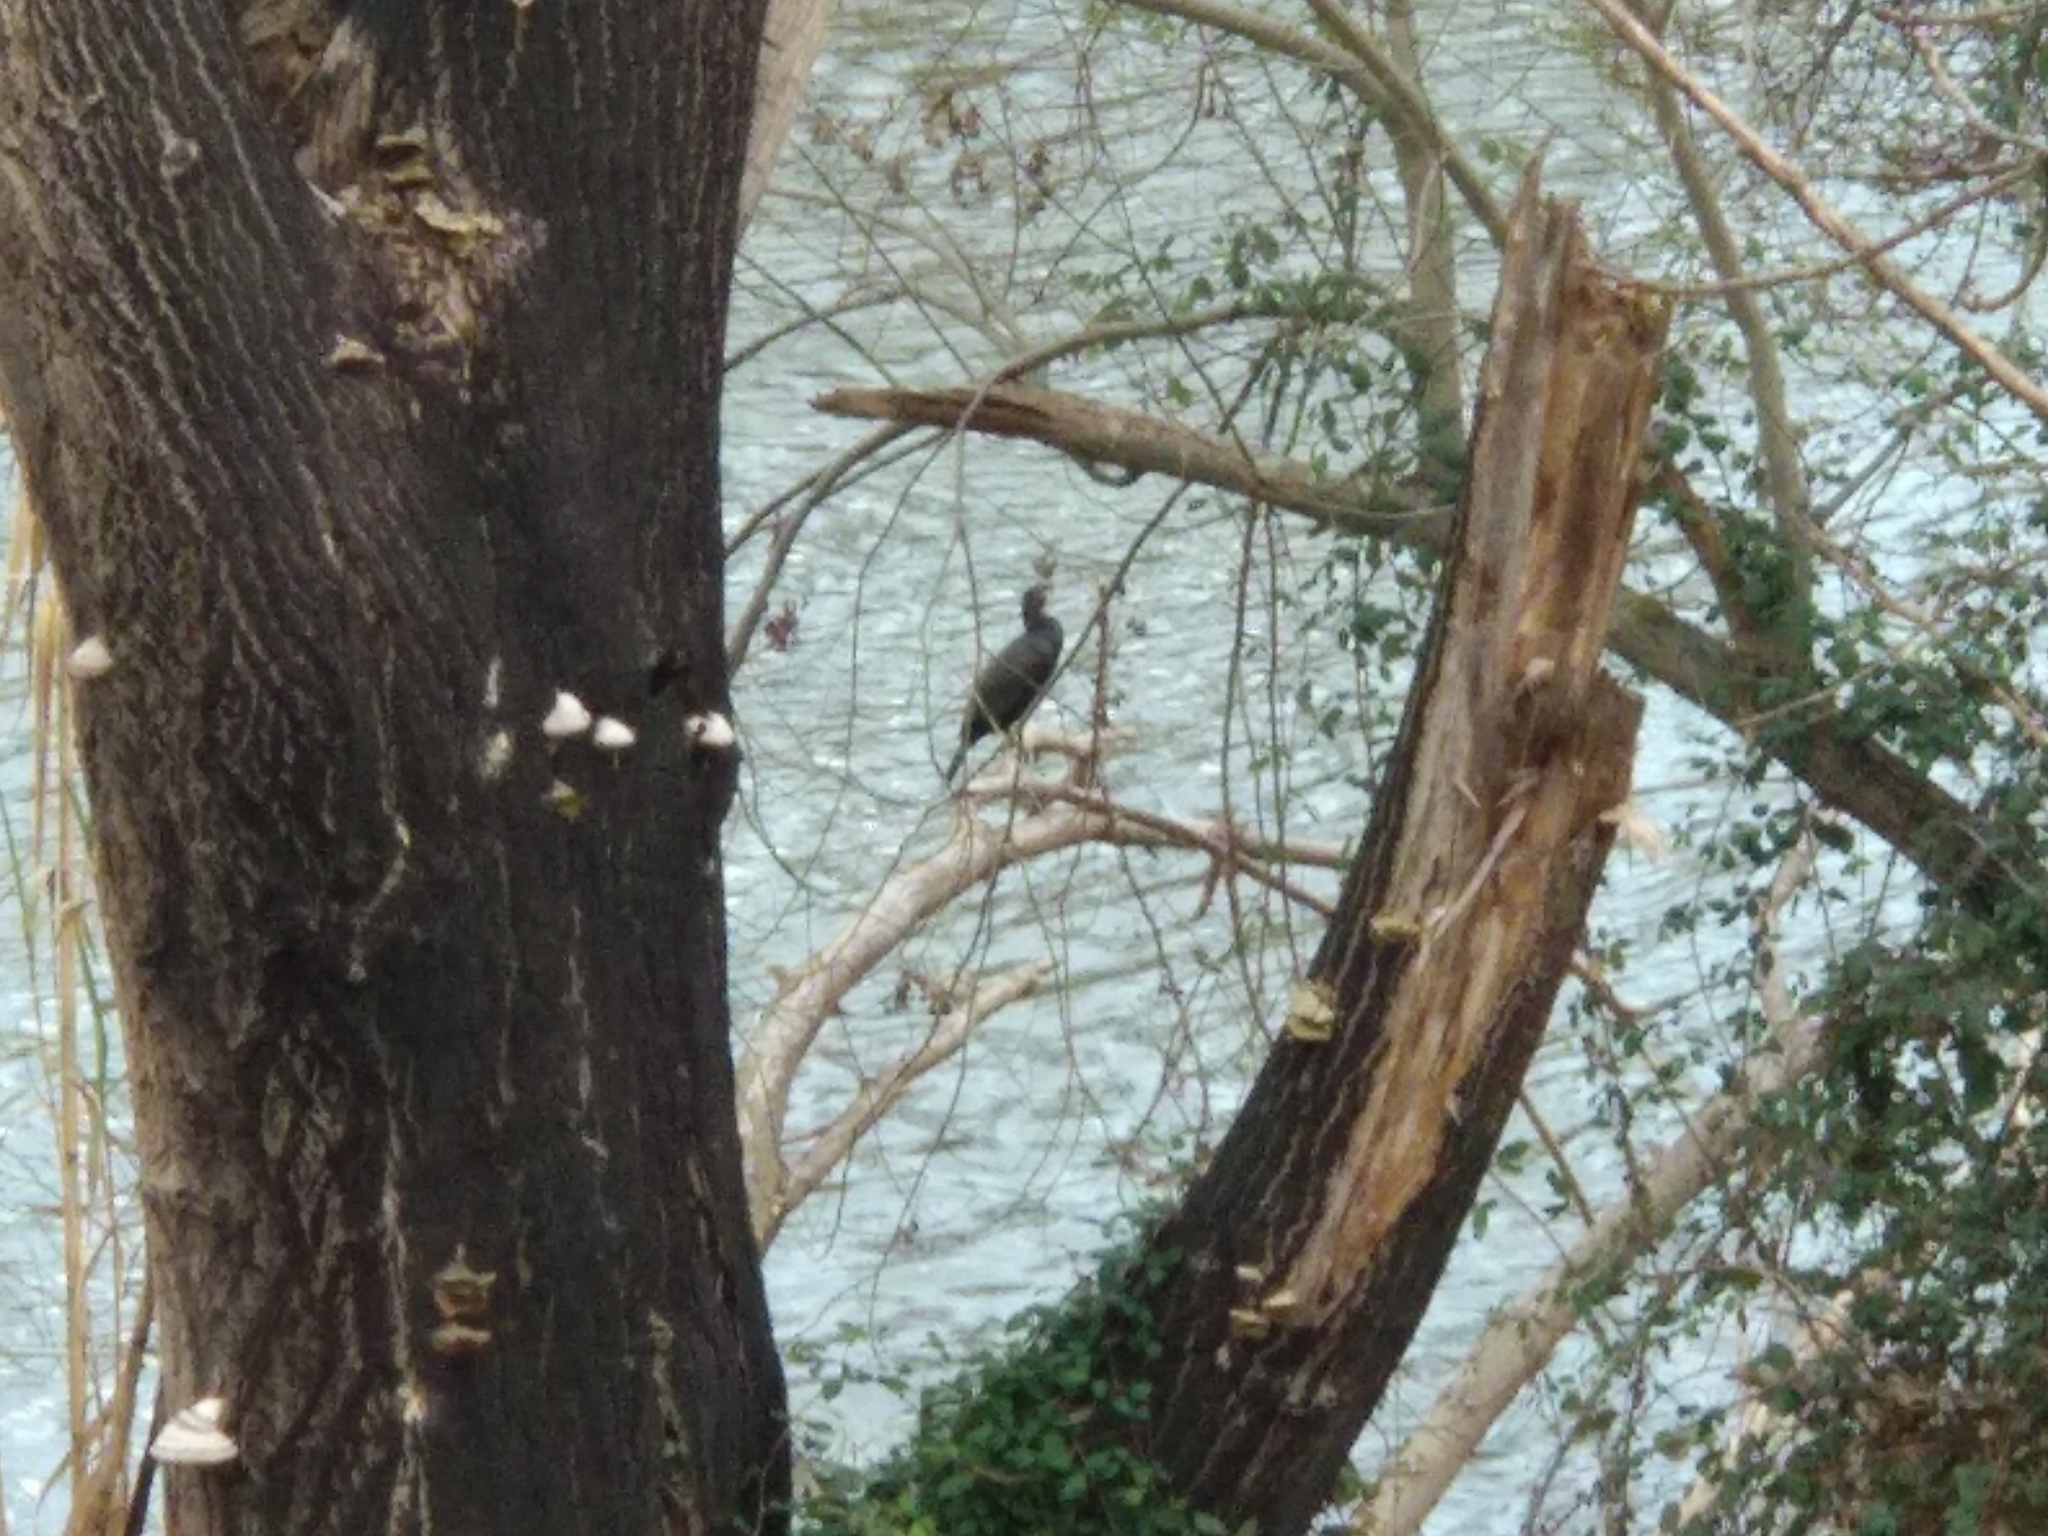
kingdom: Animalia
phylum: Chordata
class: Aves
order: Suliformes
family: Phalacrocoracidae
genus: Phalacrocorax
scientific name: Phalacrocorax carbo
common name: Great cormorant
